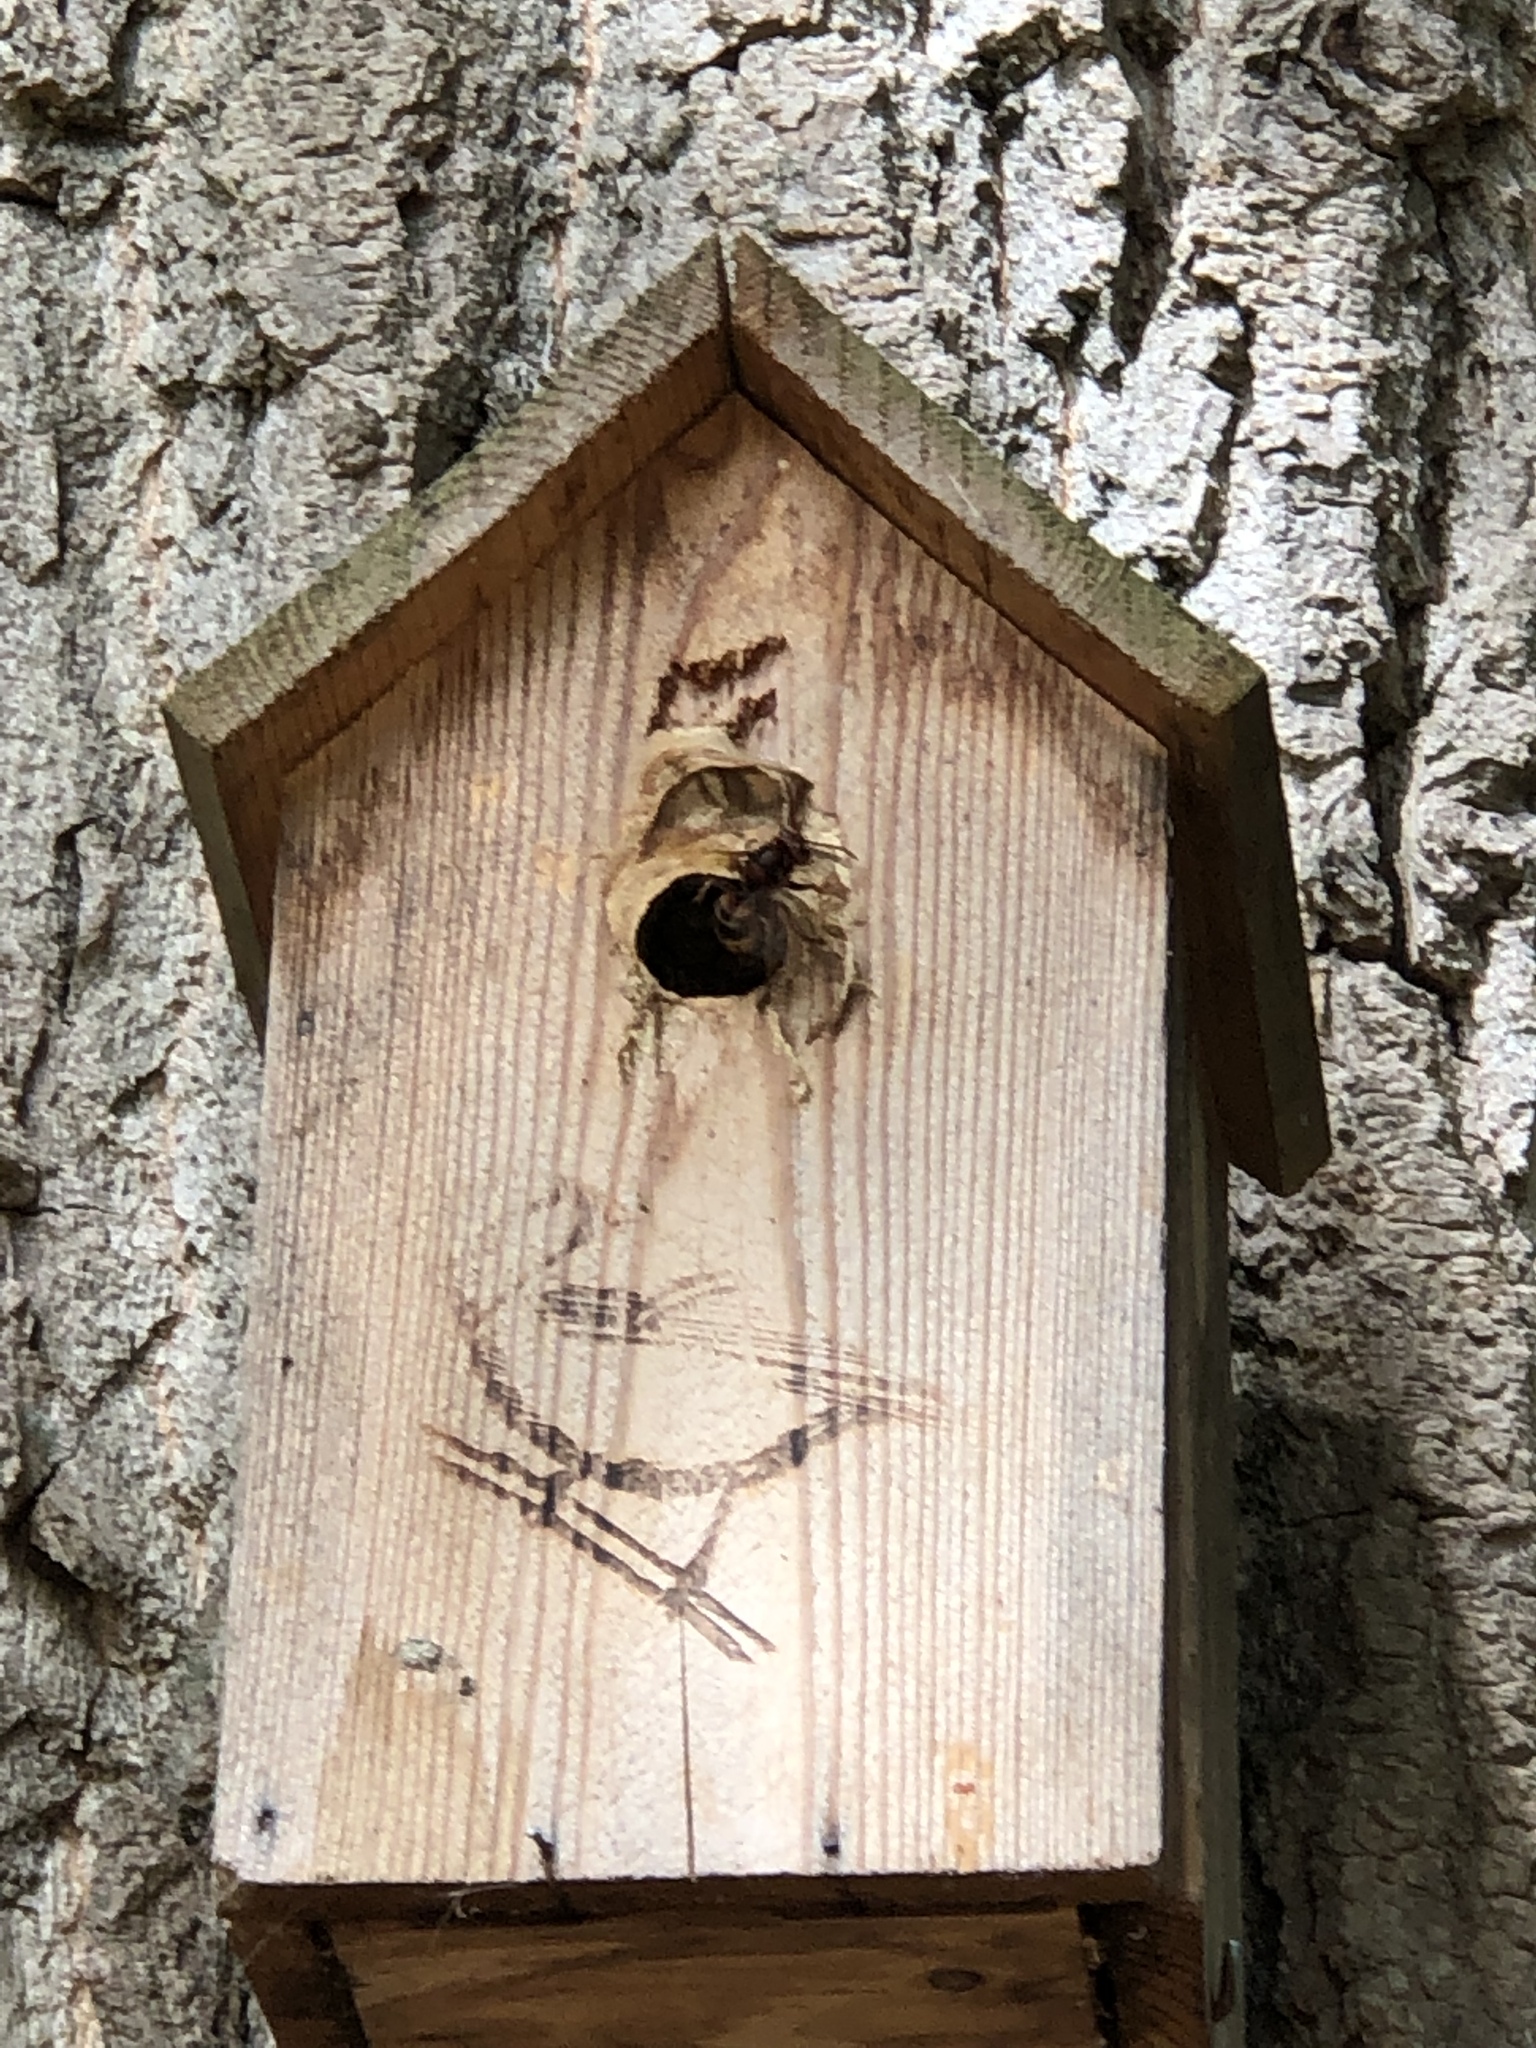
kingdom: Animalia
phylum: Arthropoda
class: Insecta
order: Hymenoptera
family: Vespidae
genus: Vespa
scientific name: Vespa crabro
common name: Hornet
